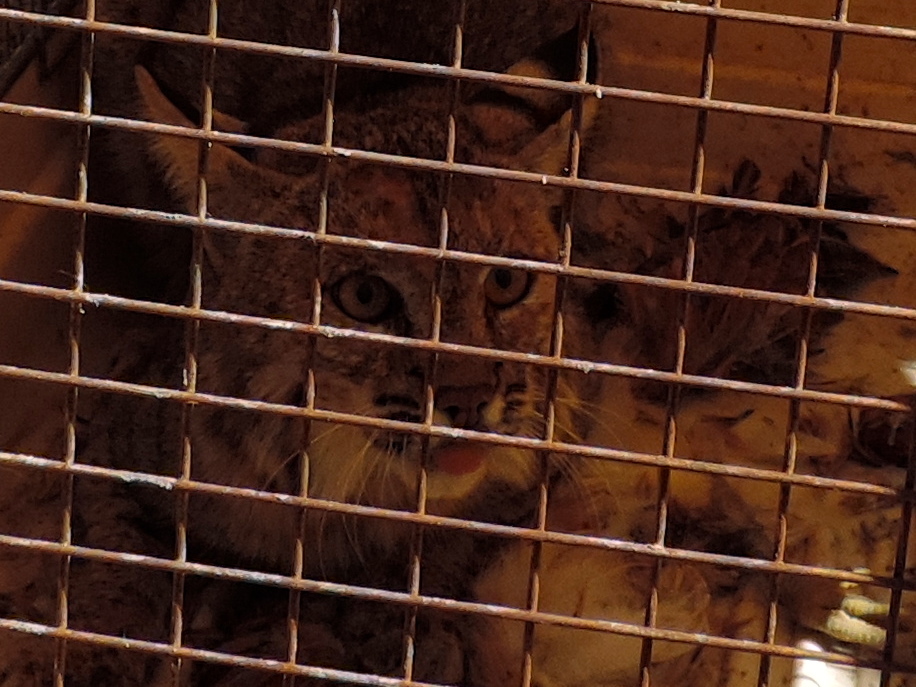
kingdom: Animalia
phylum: Chordata
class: Mammalia
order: Carnivora
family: Felidae
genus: Lynx
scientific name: Lynx rufus
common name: Bobcat
